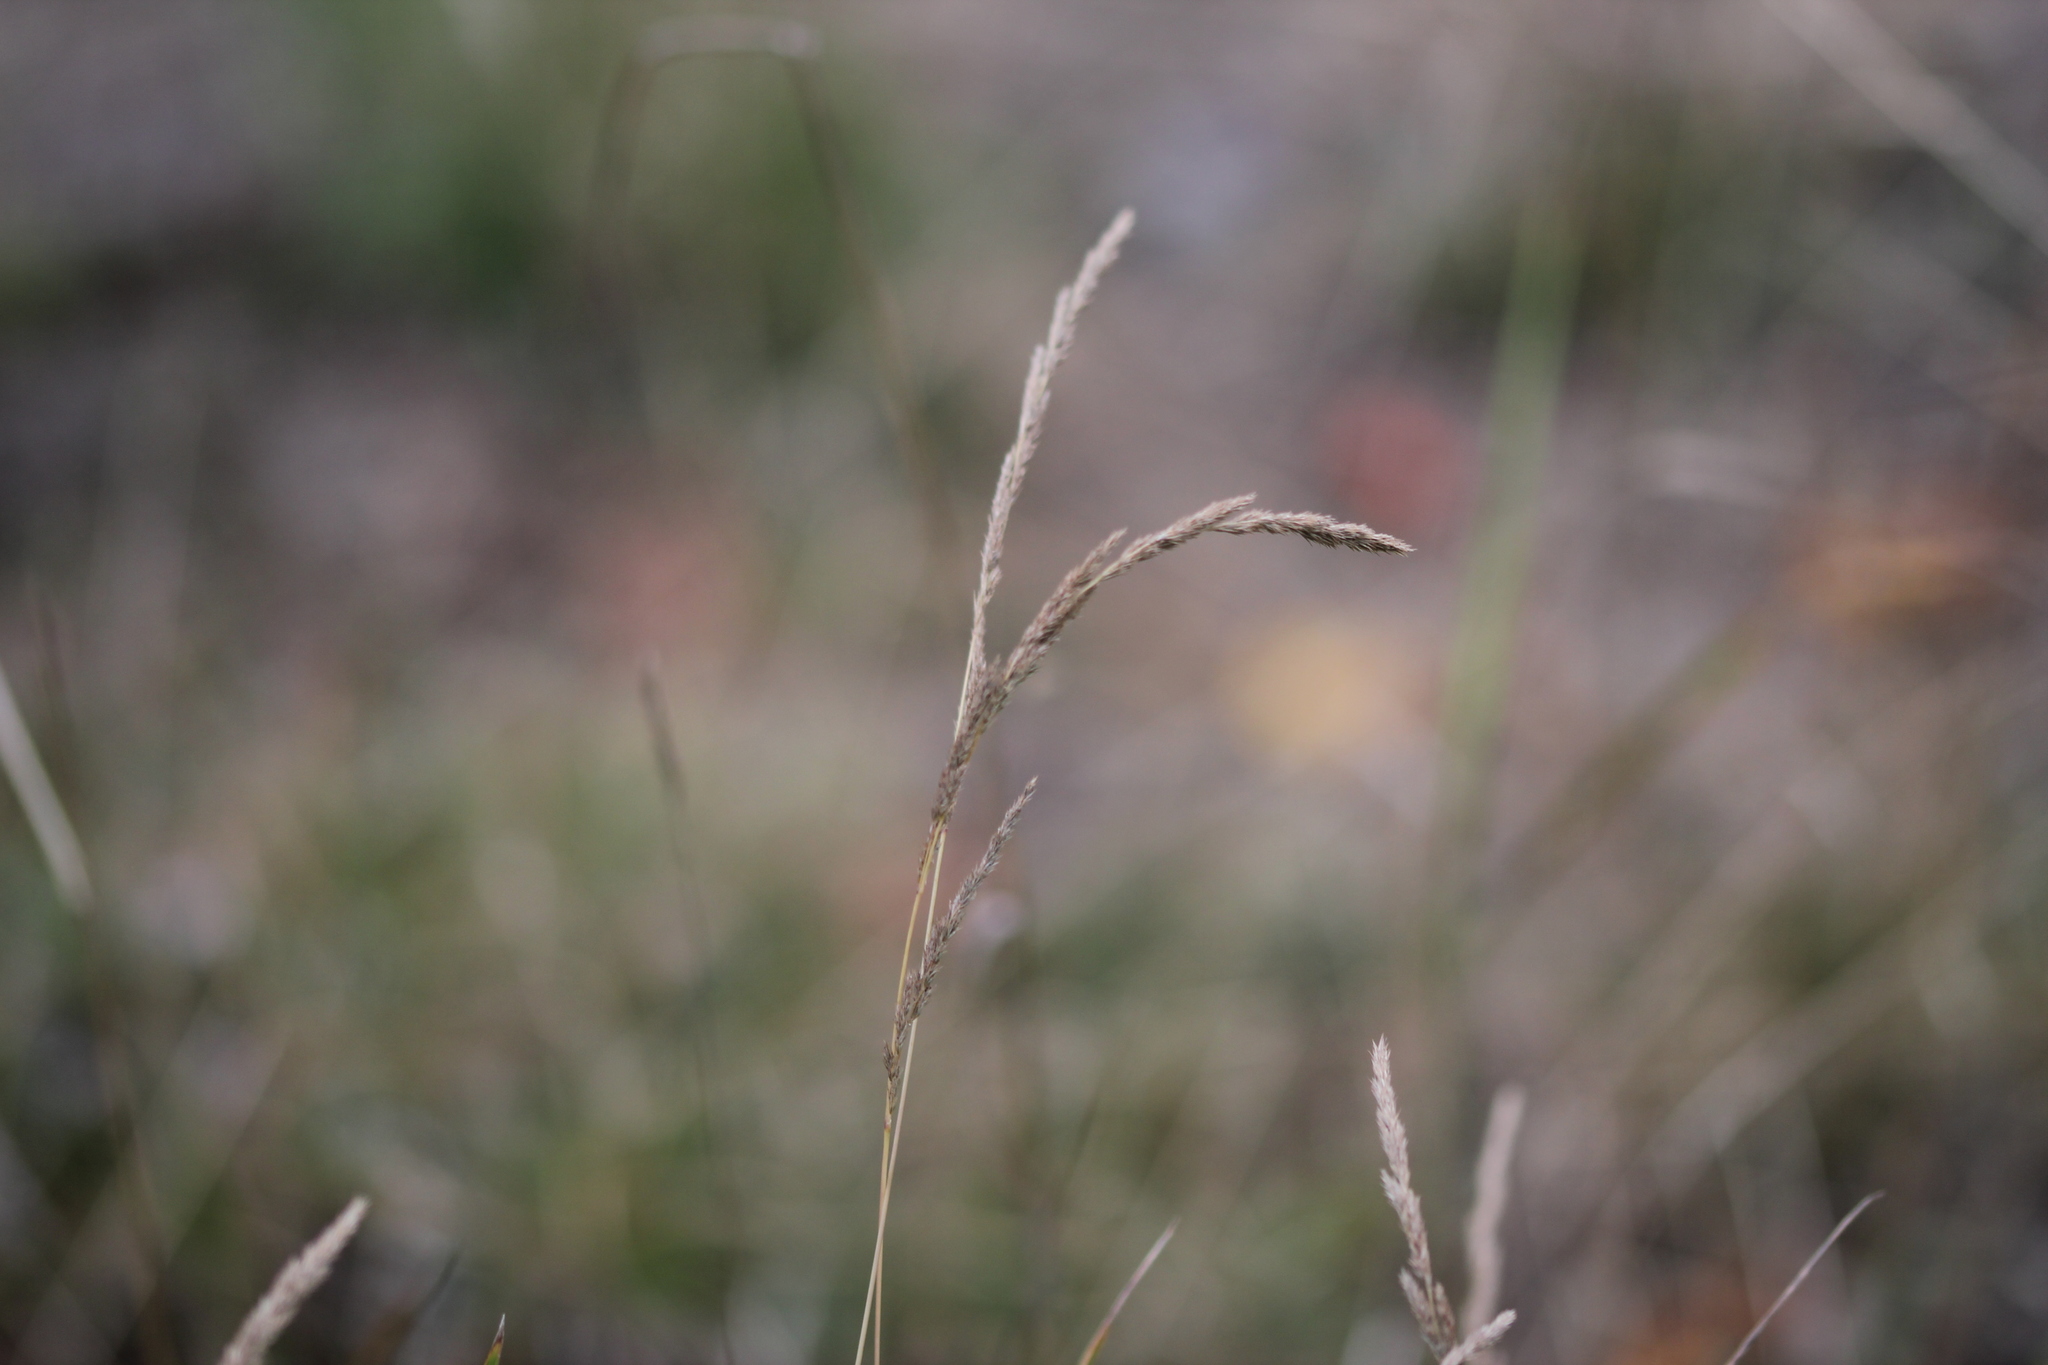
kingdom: Plantae
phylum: Tracheophyta
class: Liliopsida
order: Poales
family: Poaceae
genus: Muhlenbergia
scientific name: Muhlenbergia mexicana
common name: Mexican muhly
